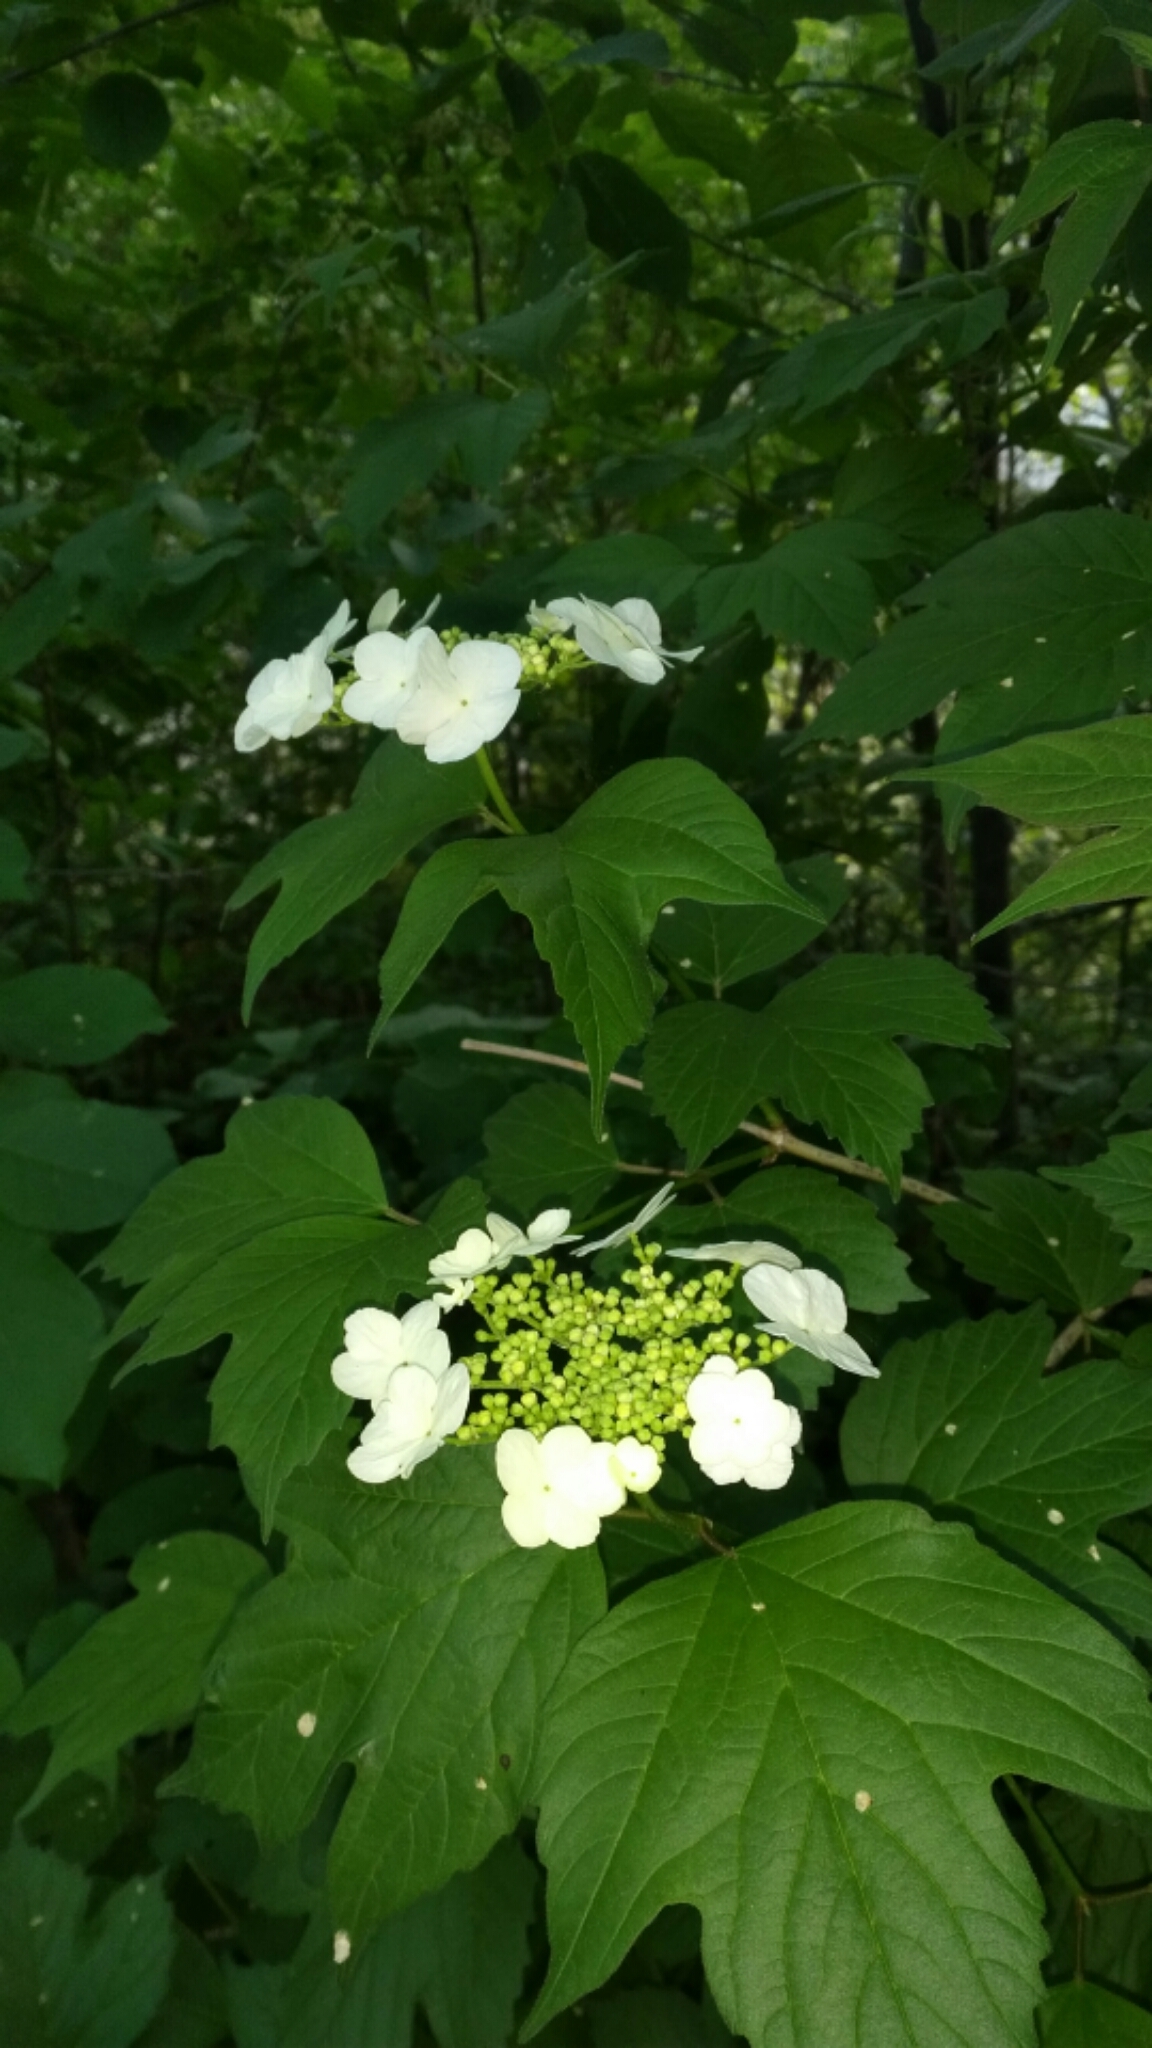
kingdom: Plantae
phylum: Tracheophyta
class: Magnoliopsida
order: Dipsacales
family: Viburnaceae
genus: Viburnum
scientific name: Viburnum trilobum
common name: American cranberrybush
